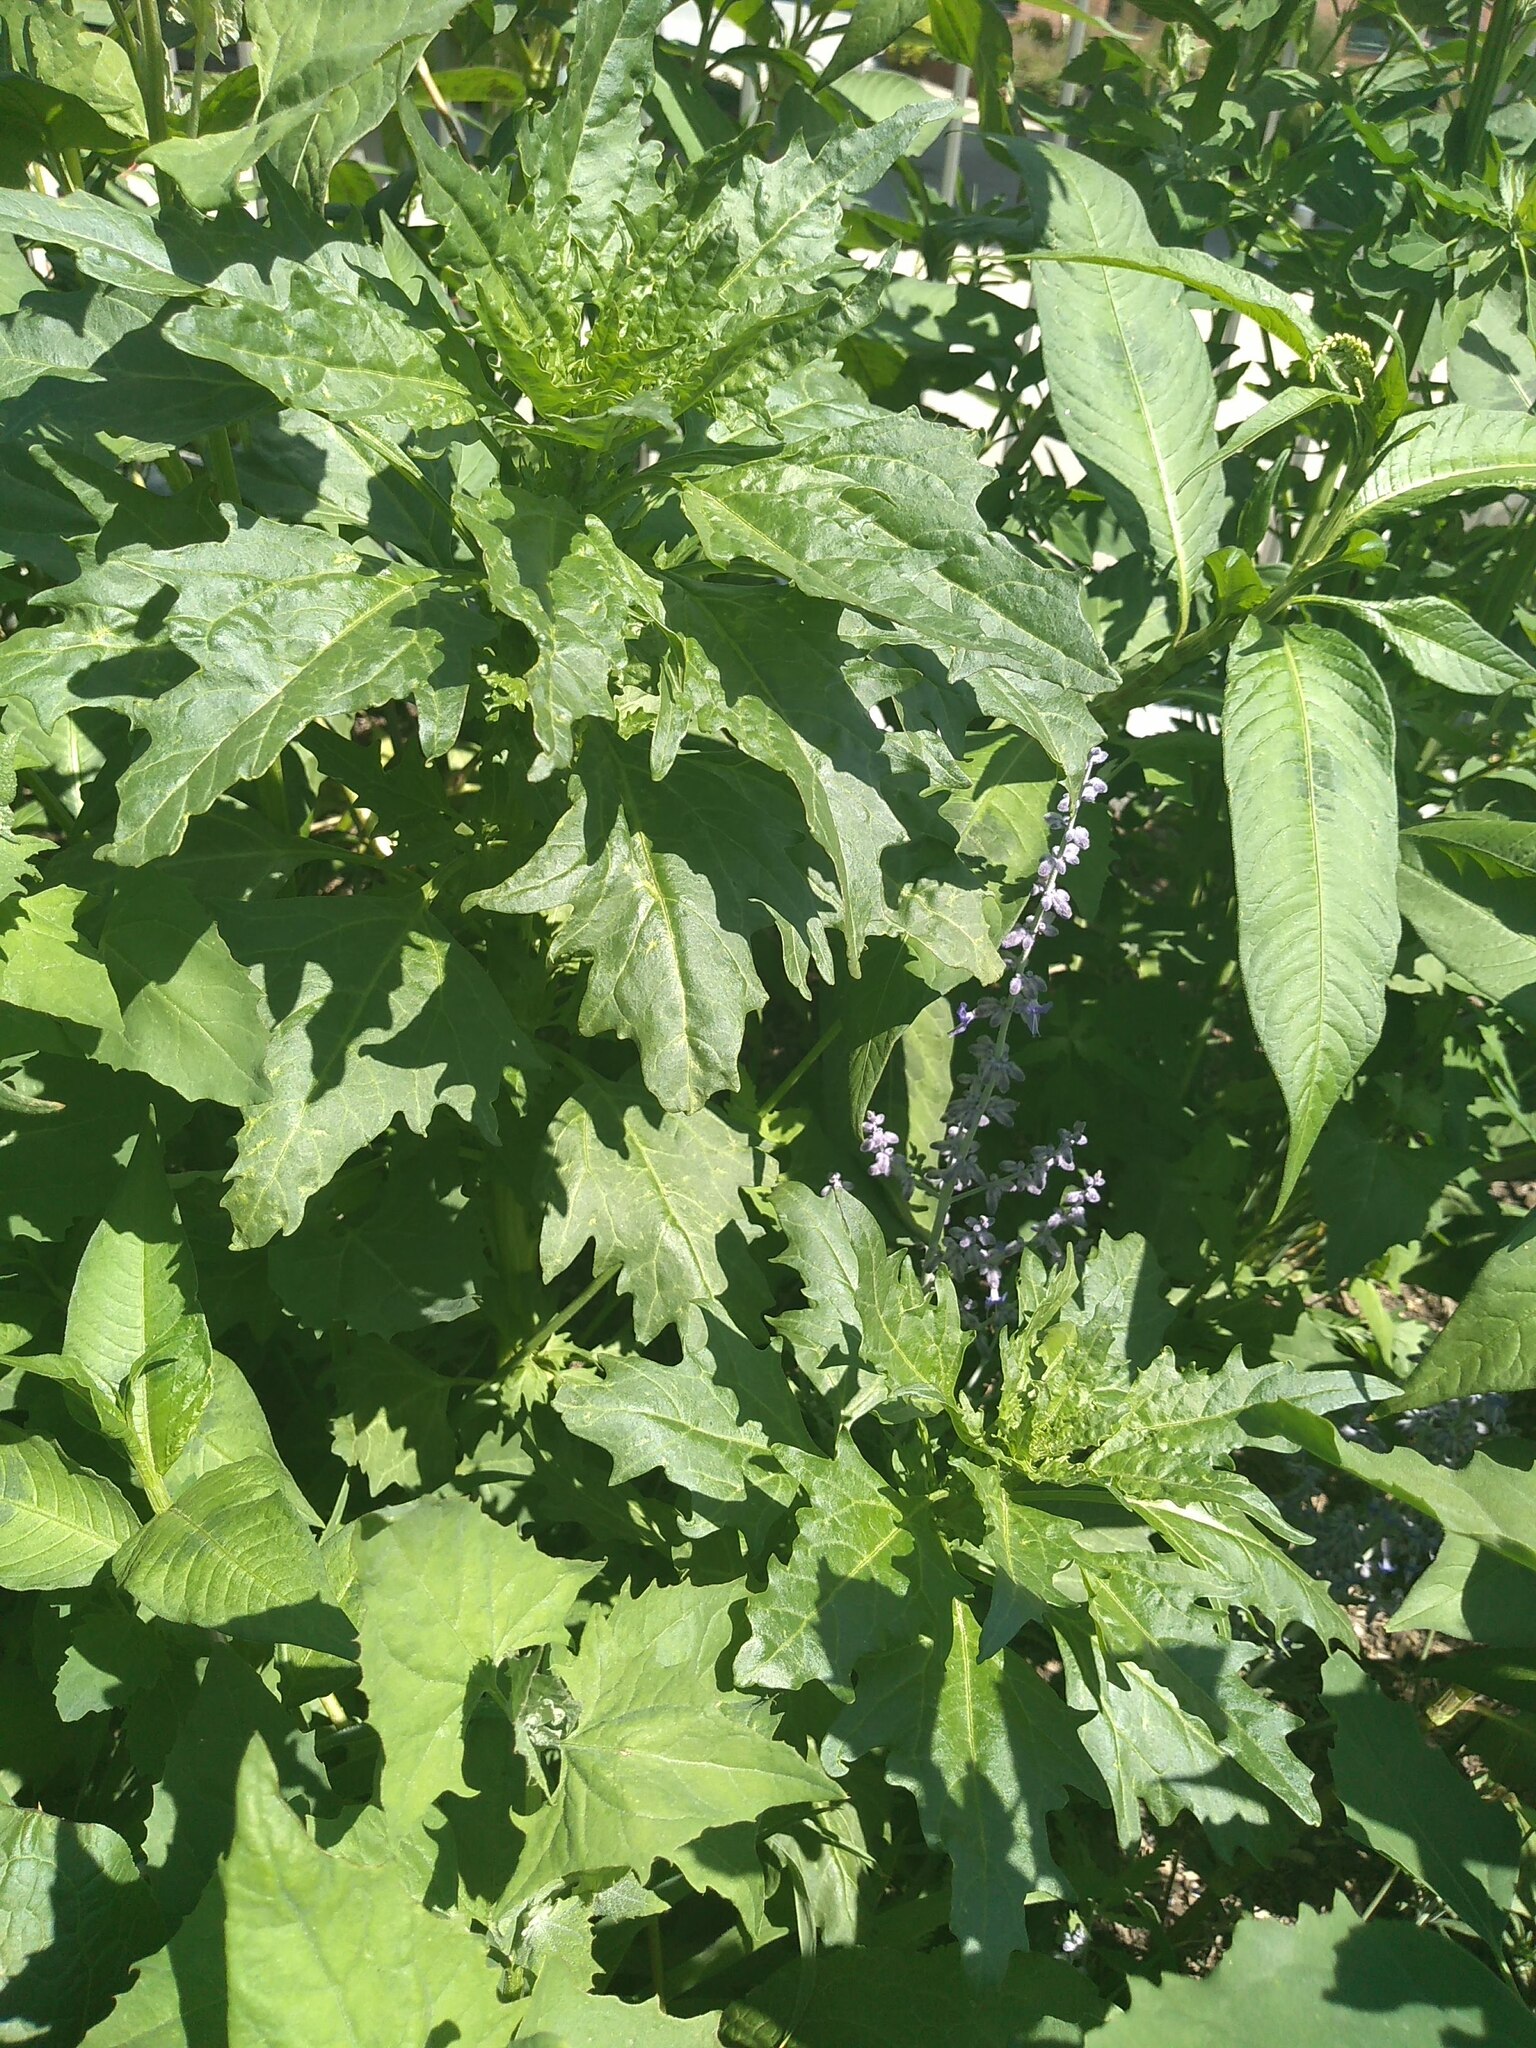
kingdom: Plantae
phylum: Tracheophyta
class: Magnoliopsida
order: Caryophyllales
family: Amaranthaceae
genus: Oxybasis
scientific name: Oxybasis rubra
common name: Red goosefoot
